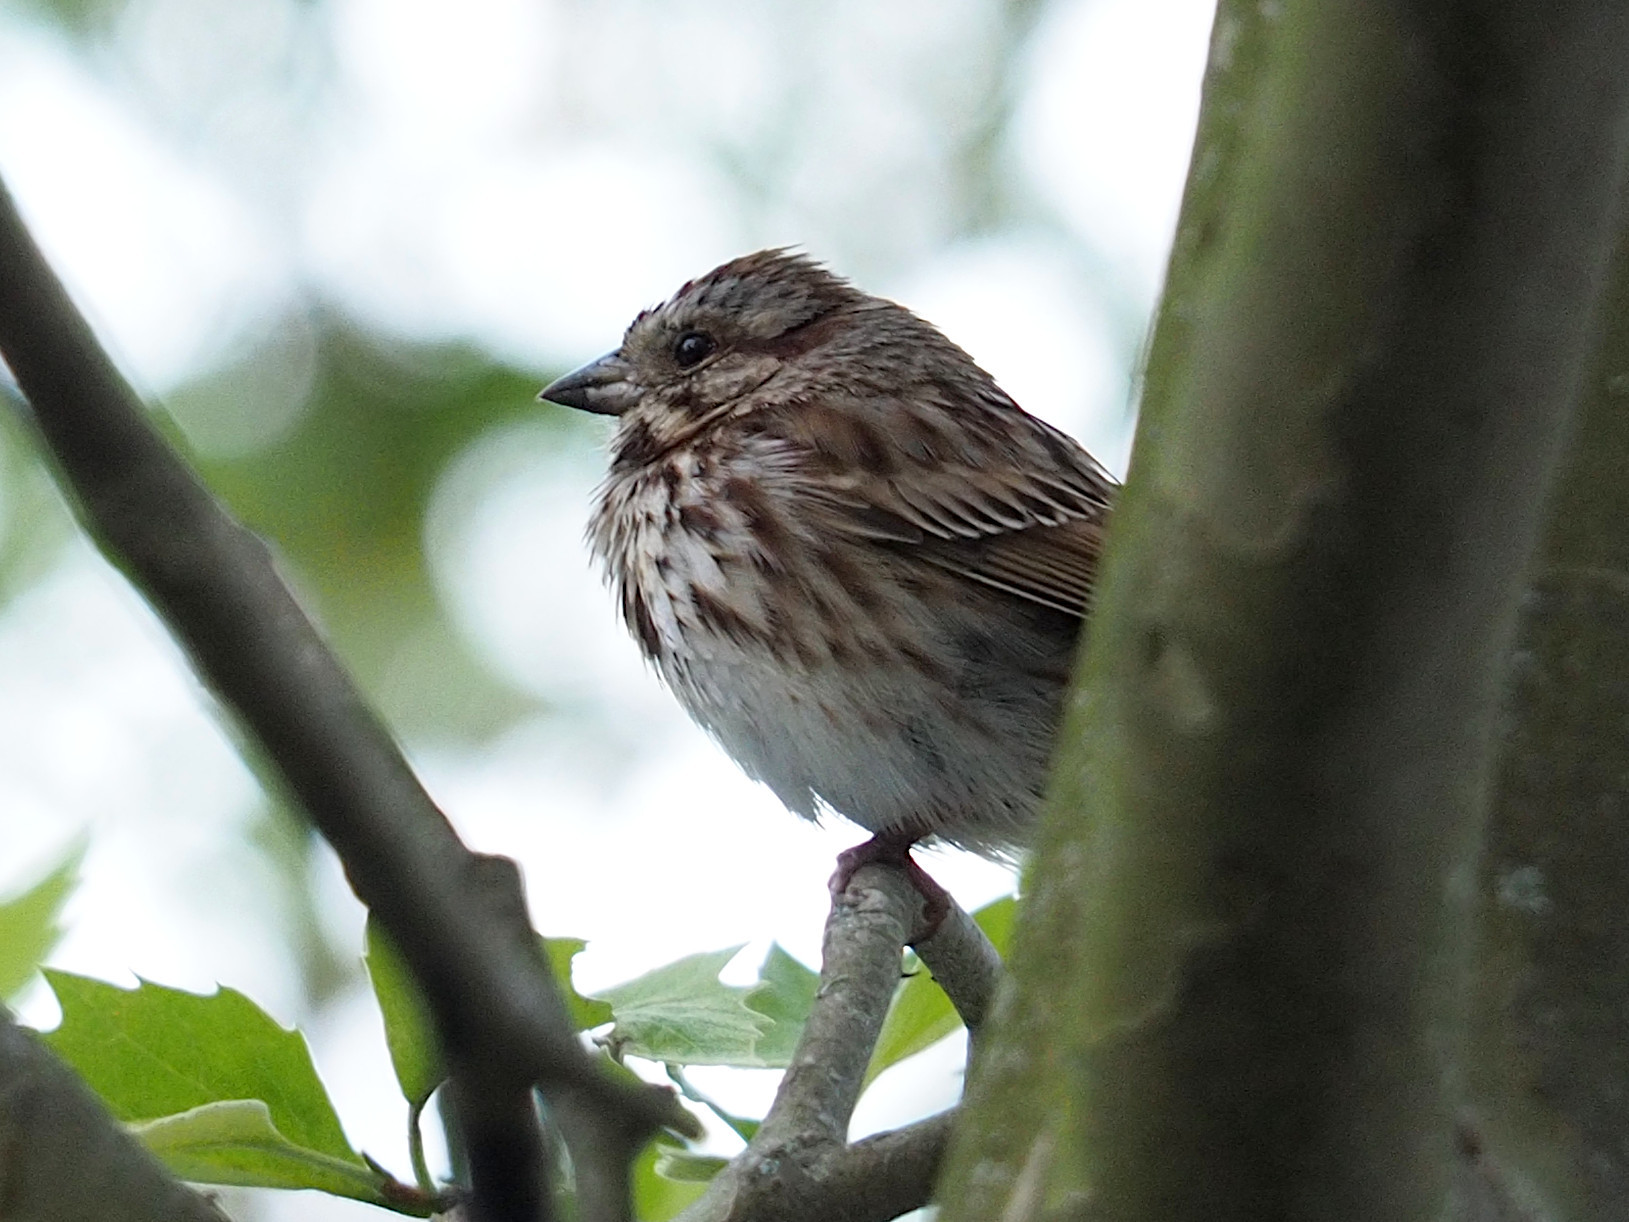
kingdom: Animalia
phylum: Chordata
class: Aves
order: Passeriformes
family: Passerellidae
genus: Melospiza
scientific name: Melospiza melodia
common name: Song sparrow
